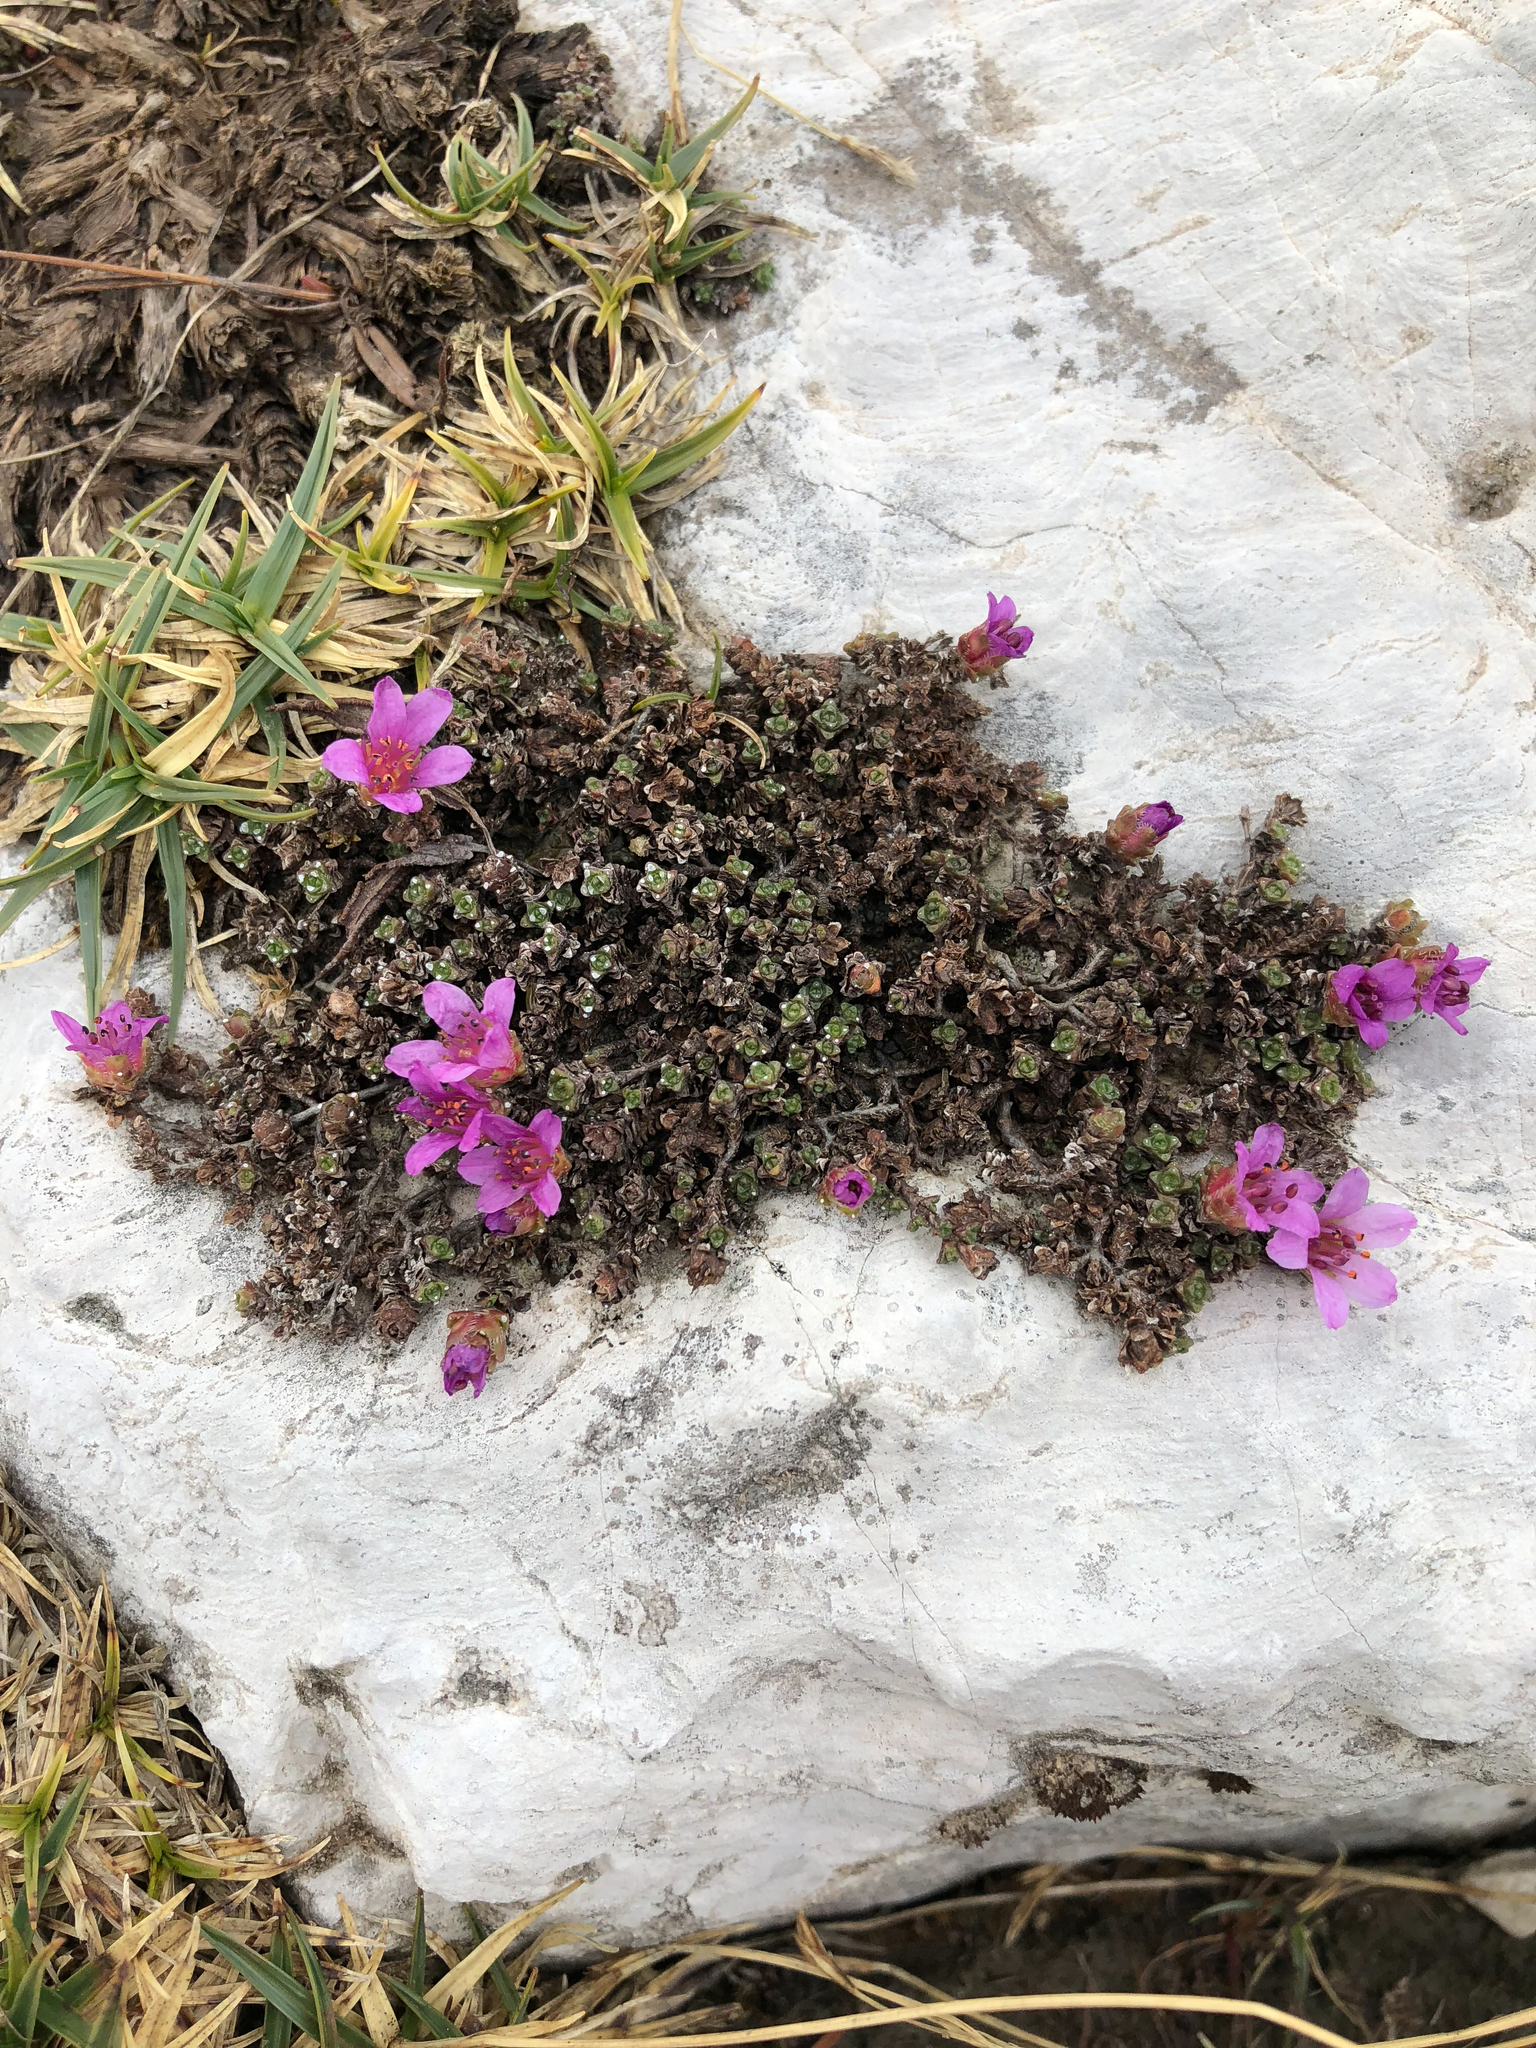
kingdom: Plantae
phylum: Tracheophyta
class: Magnoliopsida
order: Saxifragales
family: Saxifragaceae
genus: Saxifraga
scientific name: Saxifraga oppositifolia
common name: Purple saxifrage
